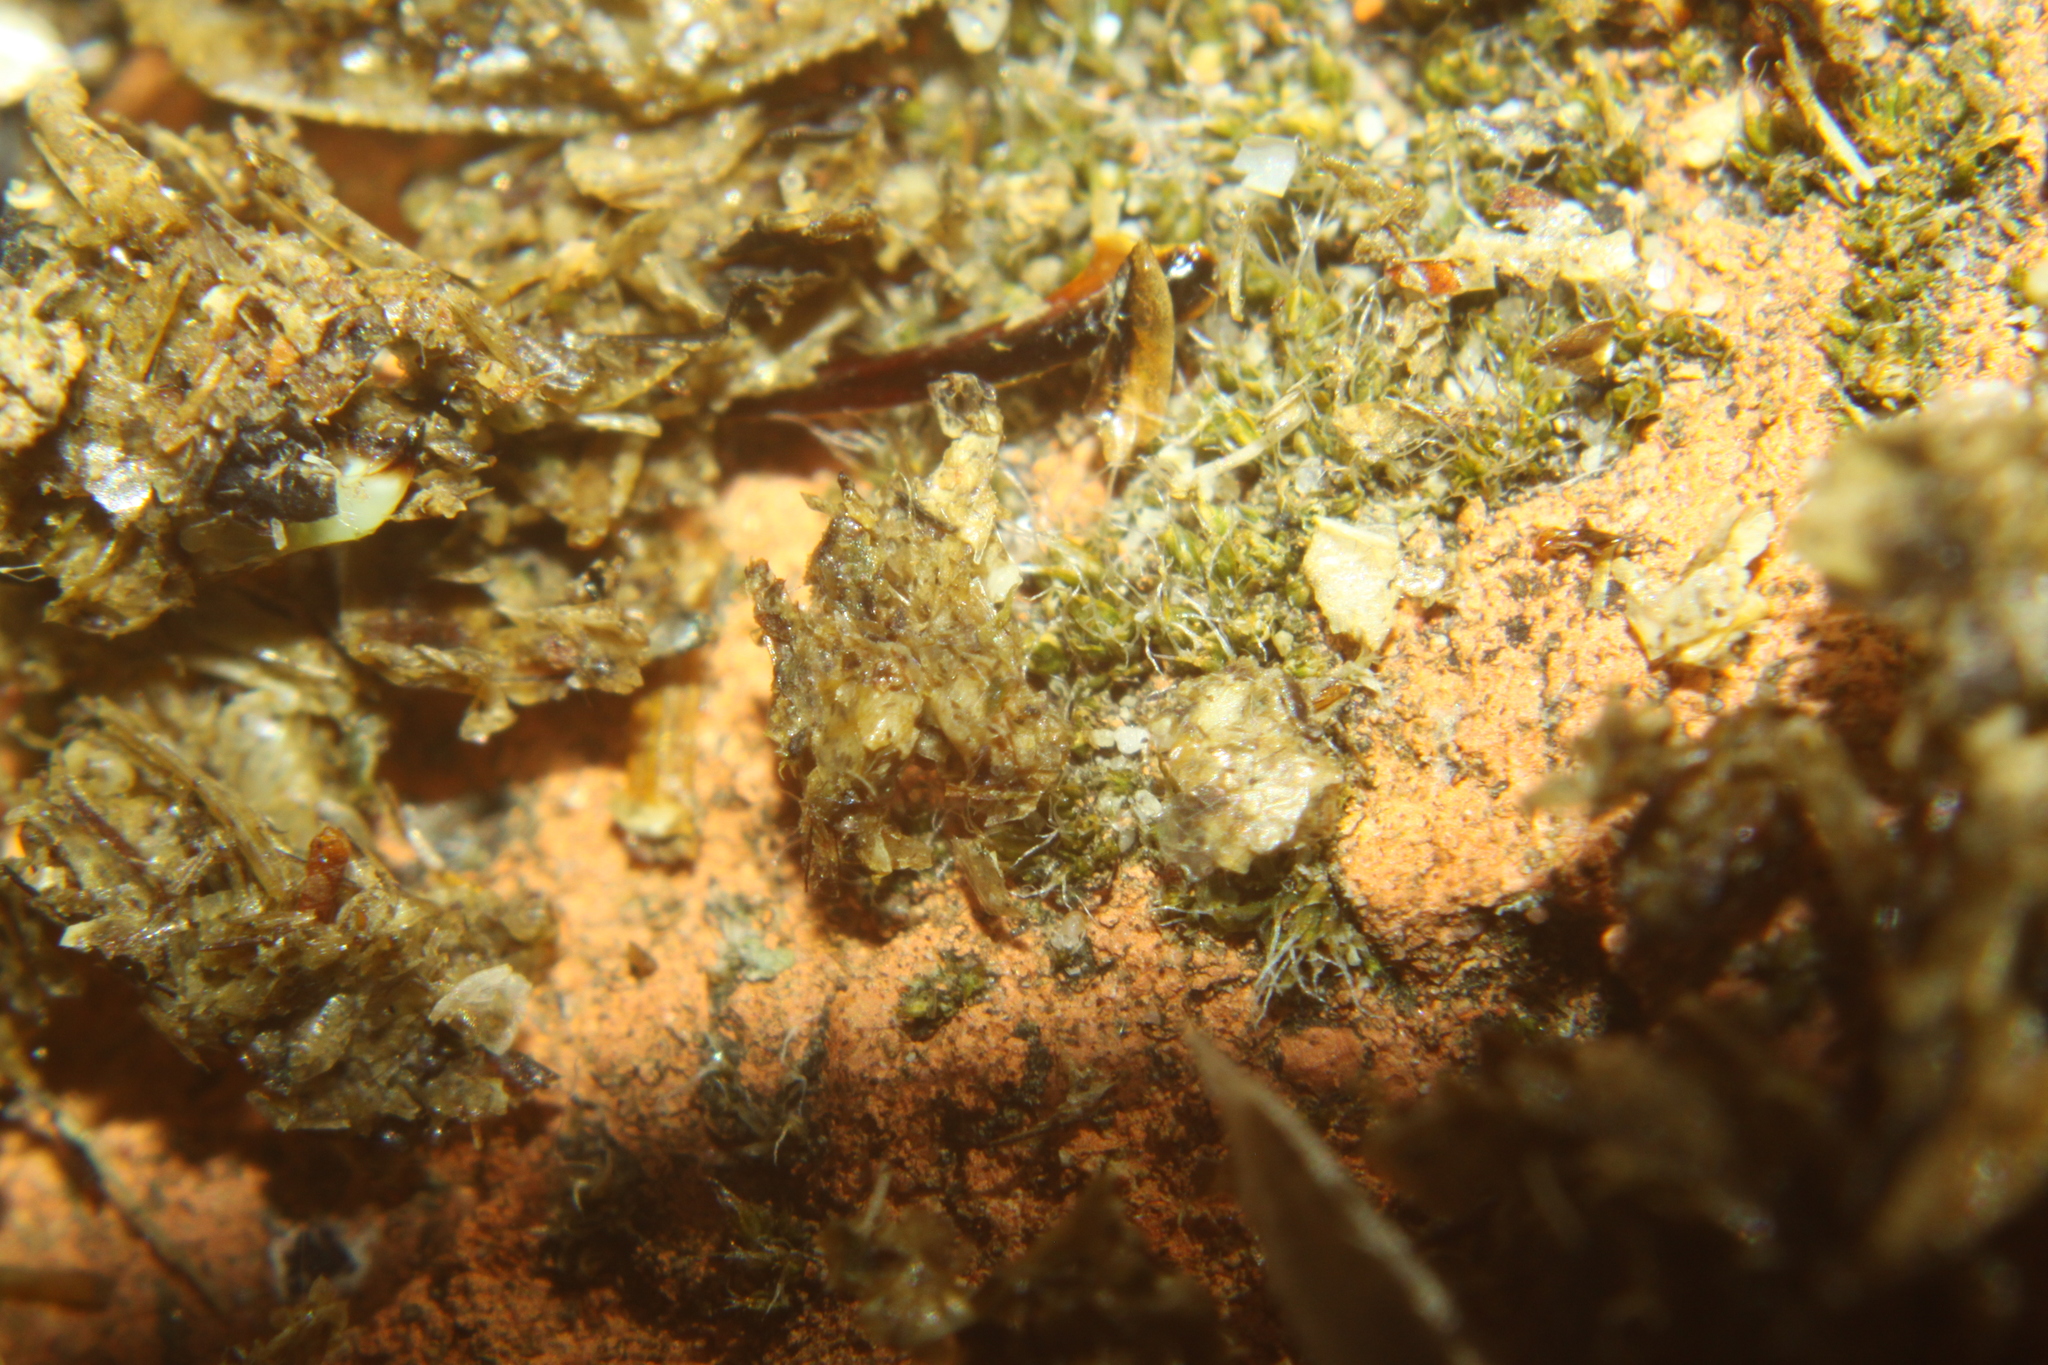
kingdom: Animalia
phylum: Chordata
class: Aves
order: Coraciiformes
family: Alcedinidae
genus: Todiramphus
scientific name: Todiramphus sanctus
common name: Sacred kingfisher
